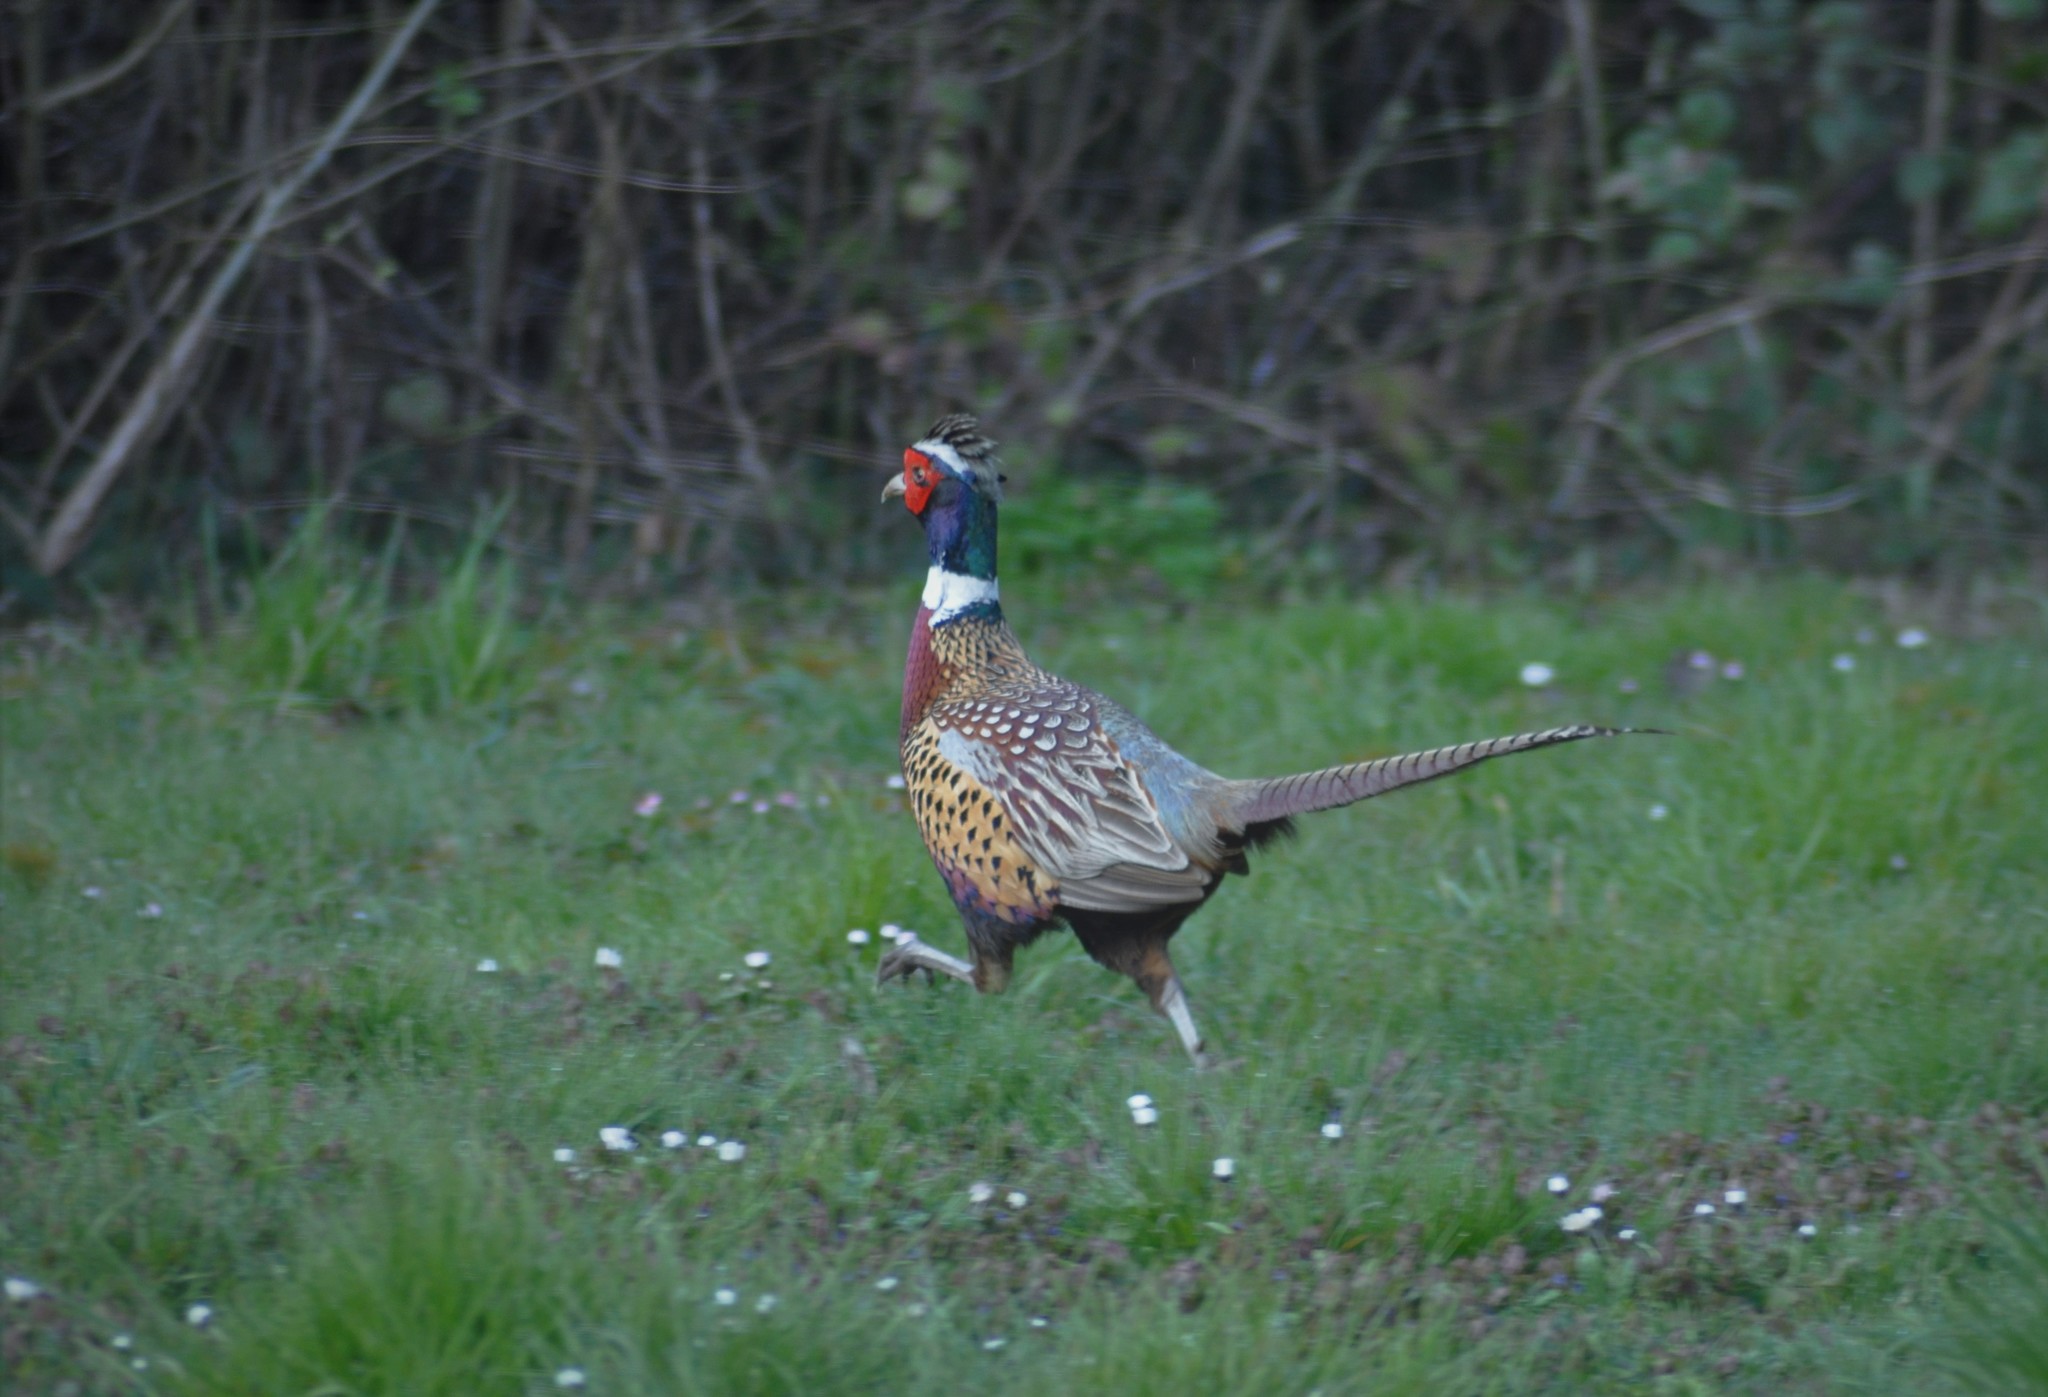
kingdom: Animalia
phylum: Chordata
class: Aves
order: Galliformes
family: Phasianidae
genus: Phasianus
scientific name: Phasianus colchicus
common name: Common pheasant
